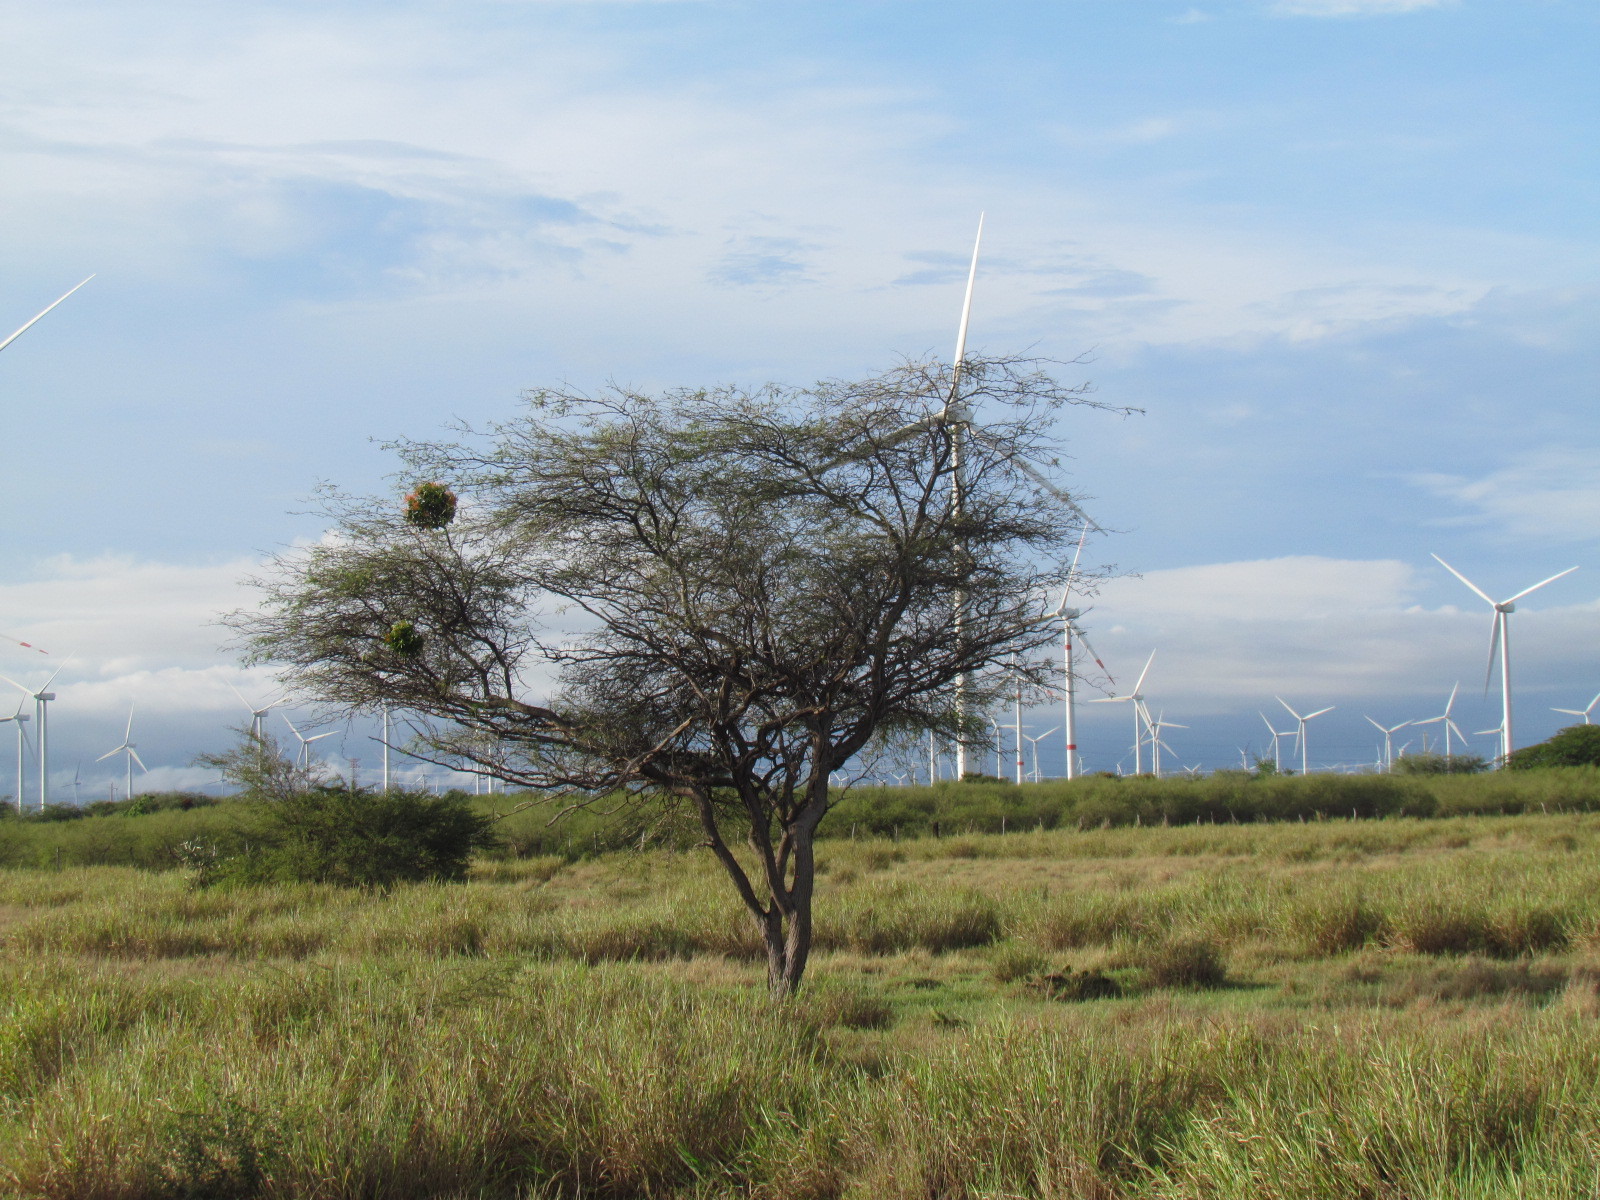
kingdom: Plantae
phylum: Tracheophyta
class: Magnoliopsida
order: Fabales
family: Fabaceae
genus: Prosopis
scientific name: Prosopis laevigata
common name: Smooth mesquite
